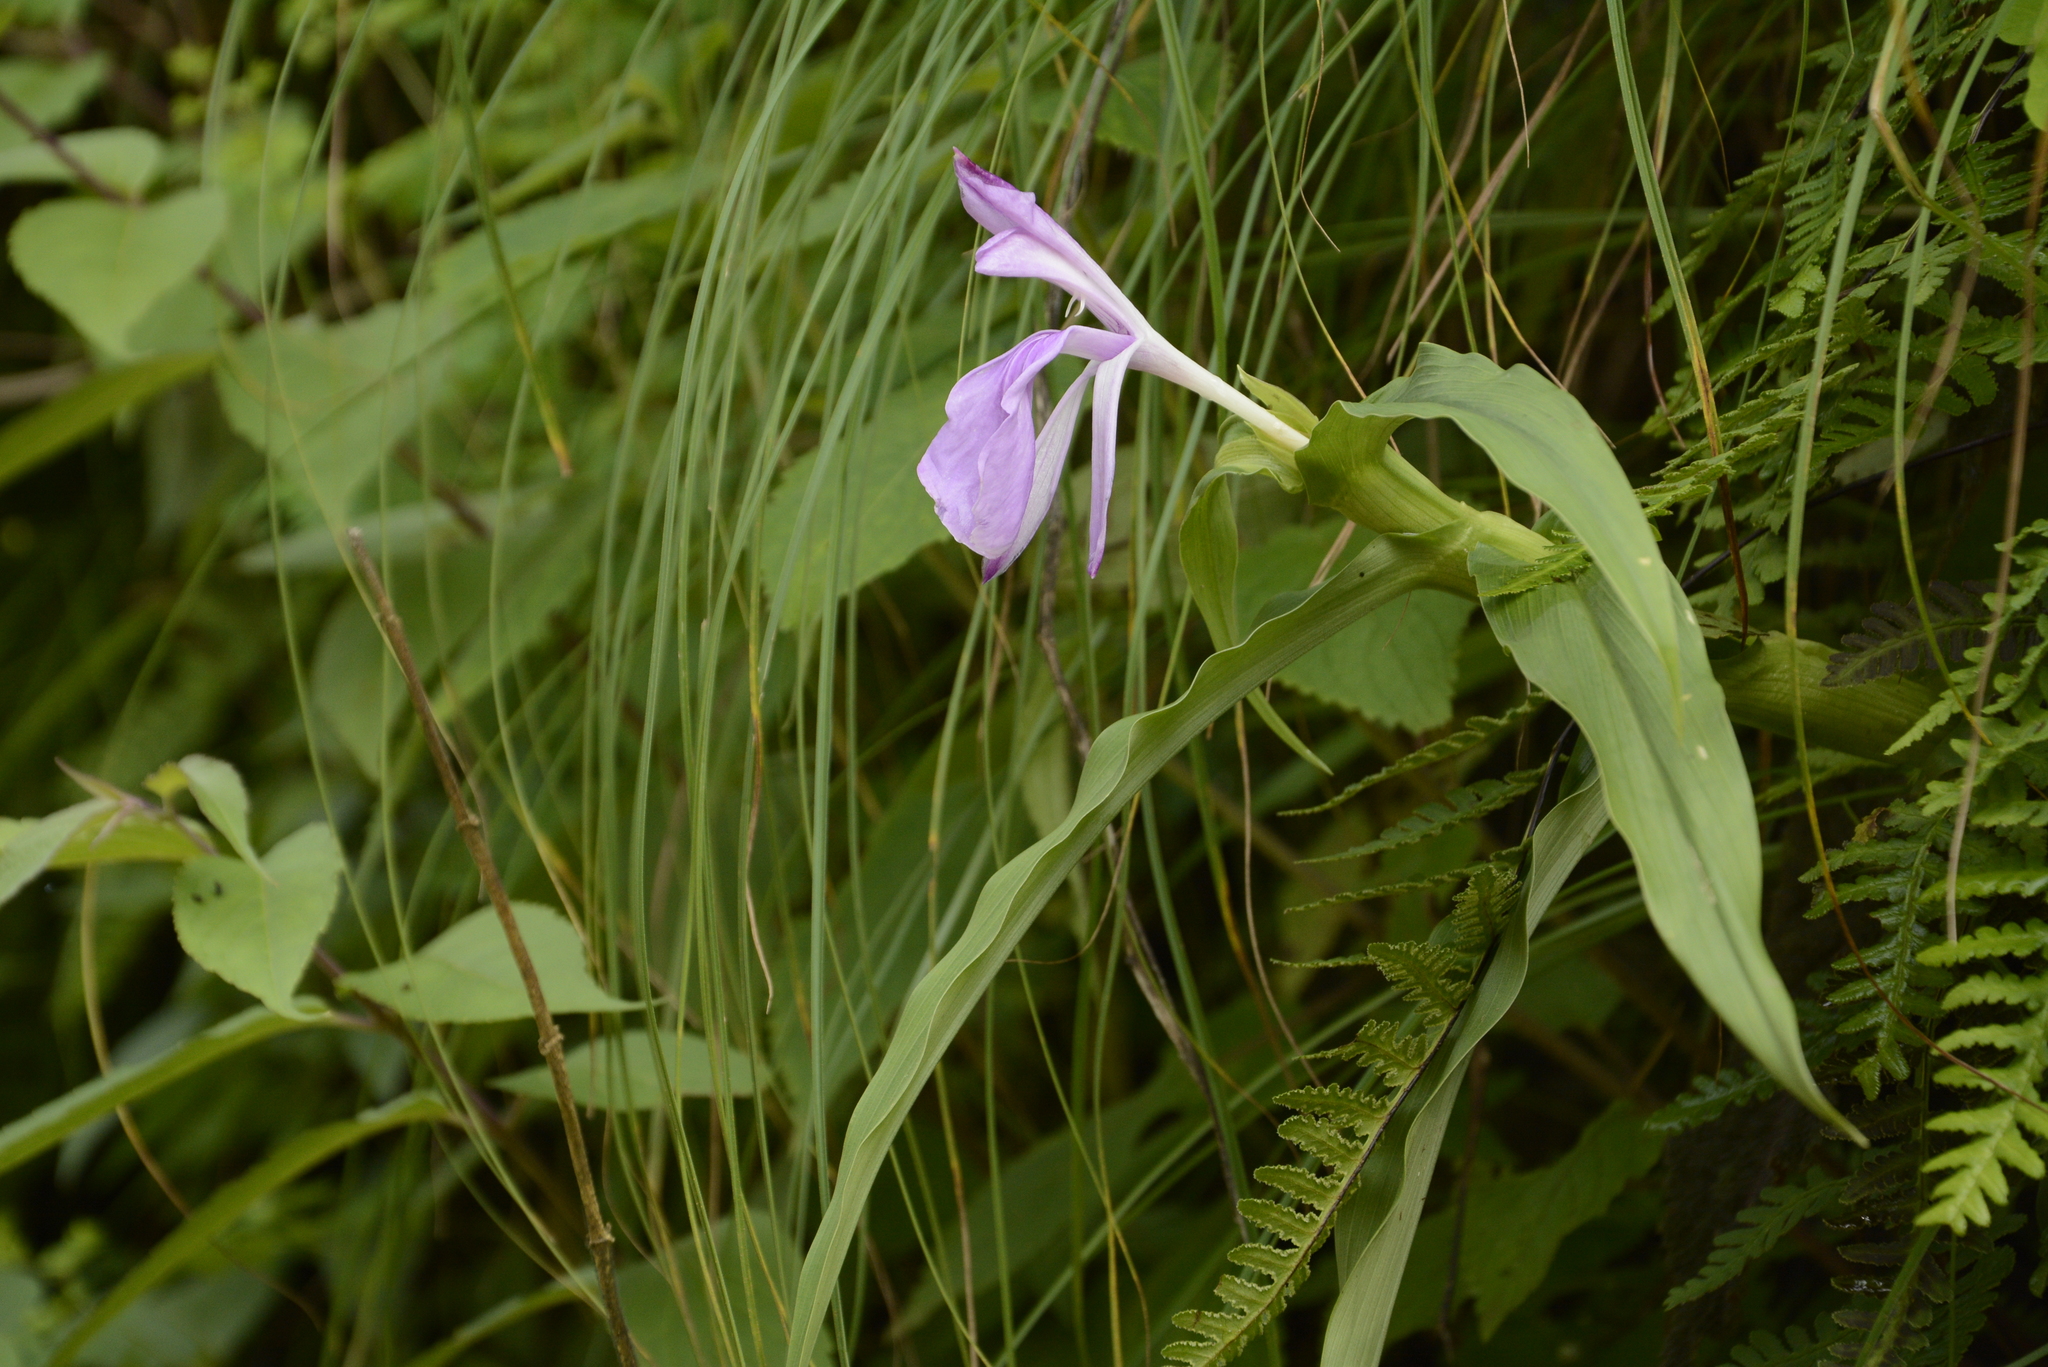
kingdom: Plantae
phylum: Tracheophyta
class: Liliopsida
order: Zingiberales
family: Zingiberaceae
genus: Roscoea
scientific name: Roscoea purpurea
